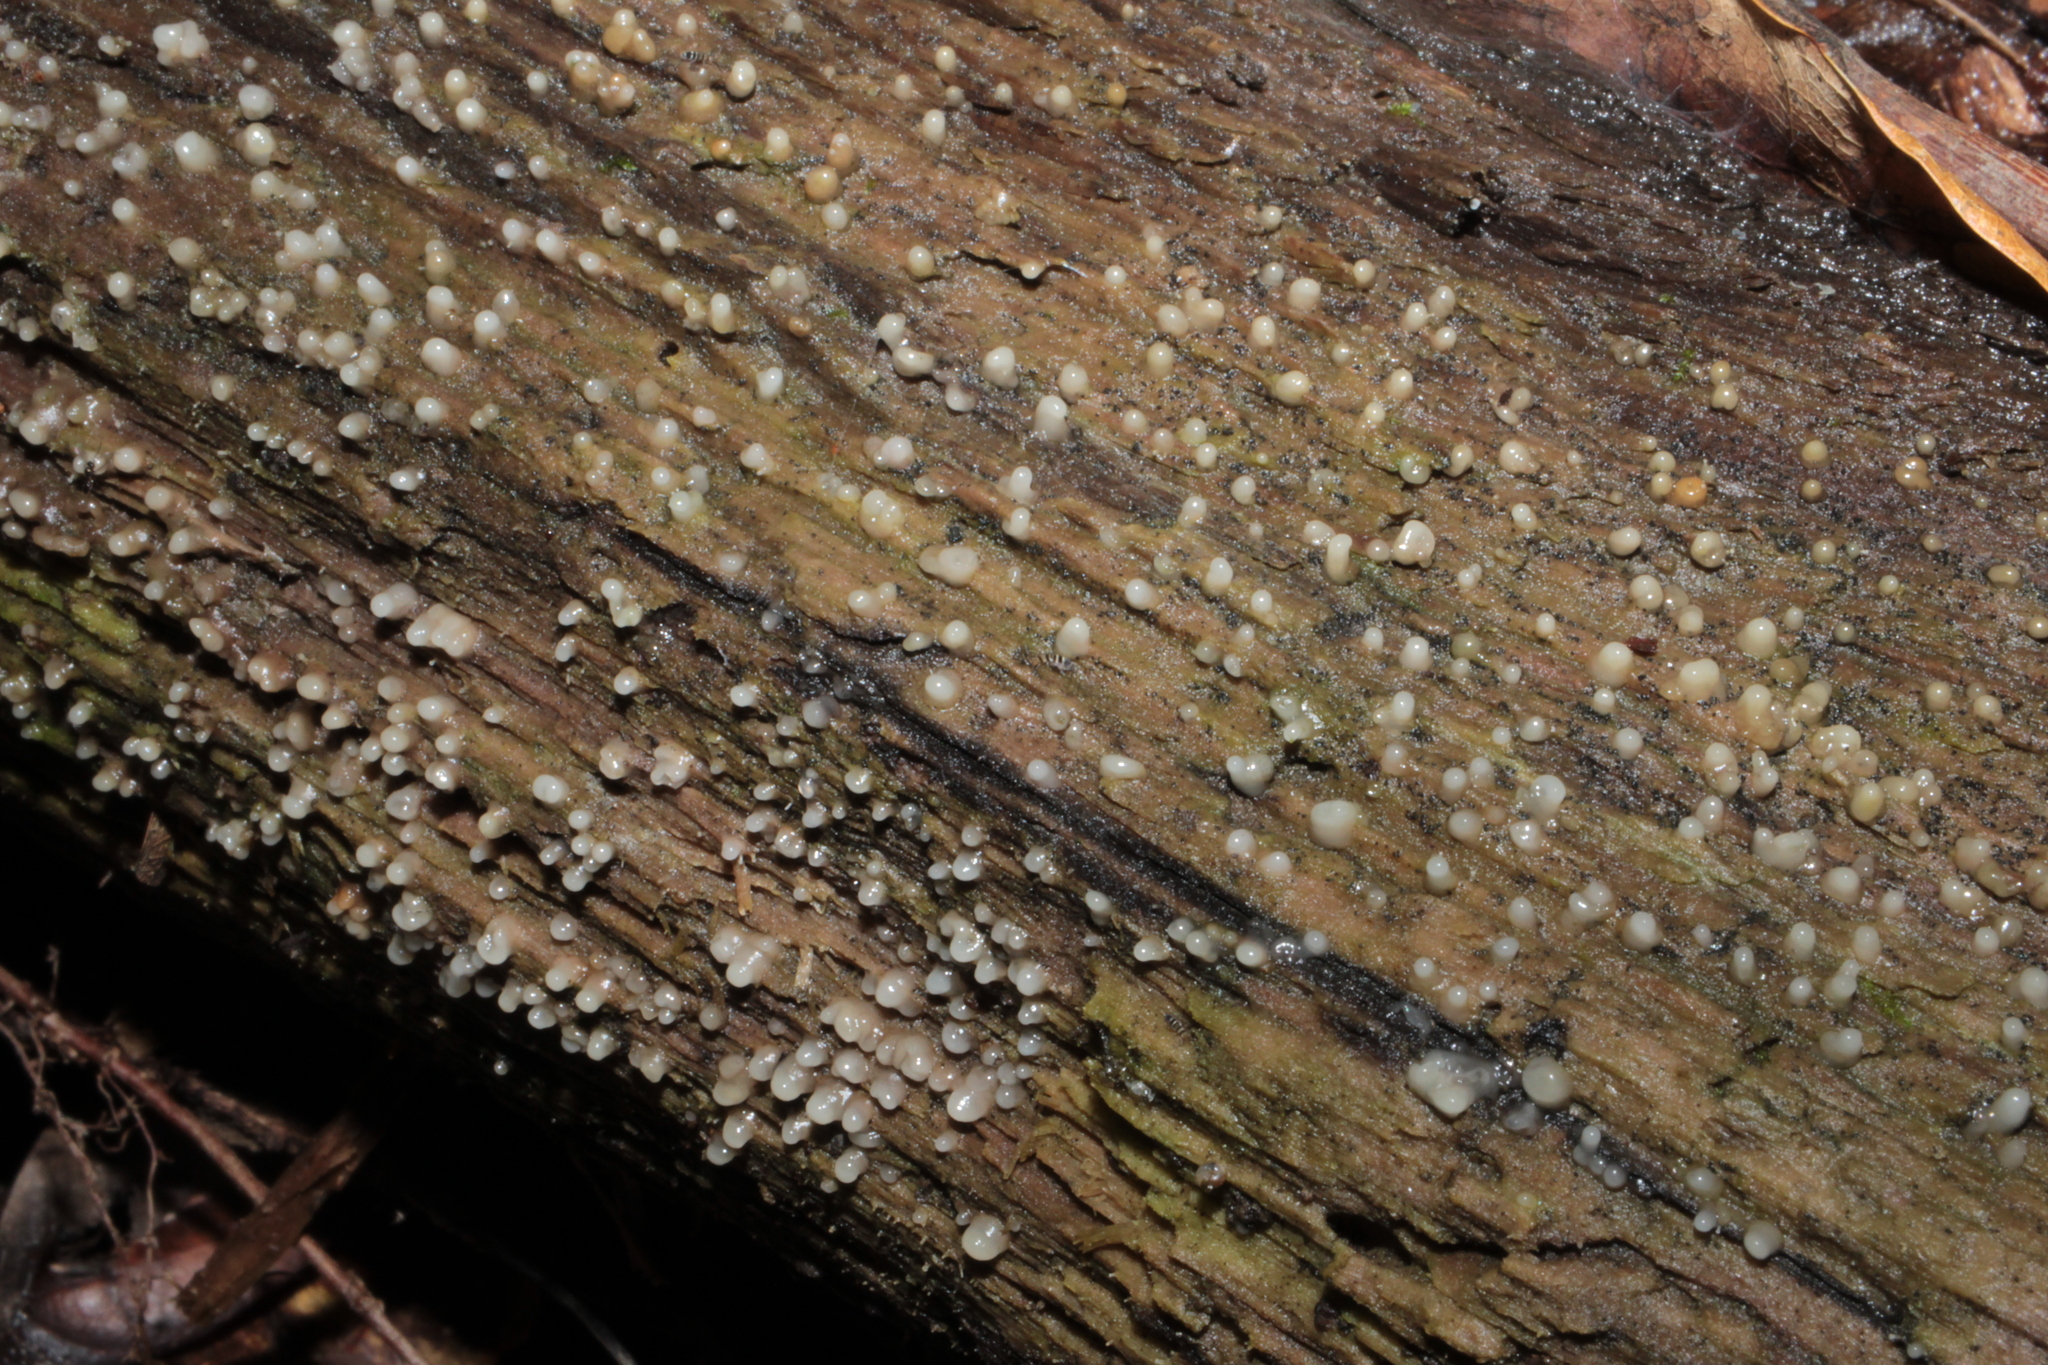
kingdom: Fungi
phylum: Basidiomycota
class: Atractiellomycetes
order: Atractiellales
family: Phleogenaceae
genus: Helicogloea
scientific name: Helicogloea compressa
